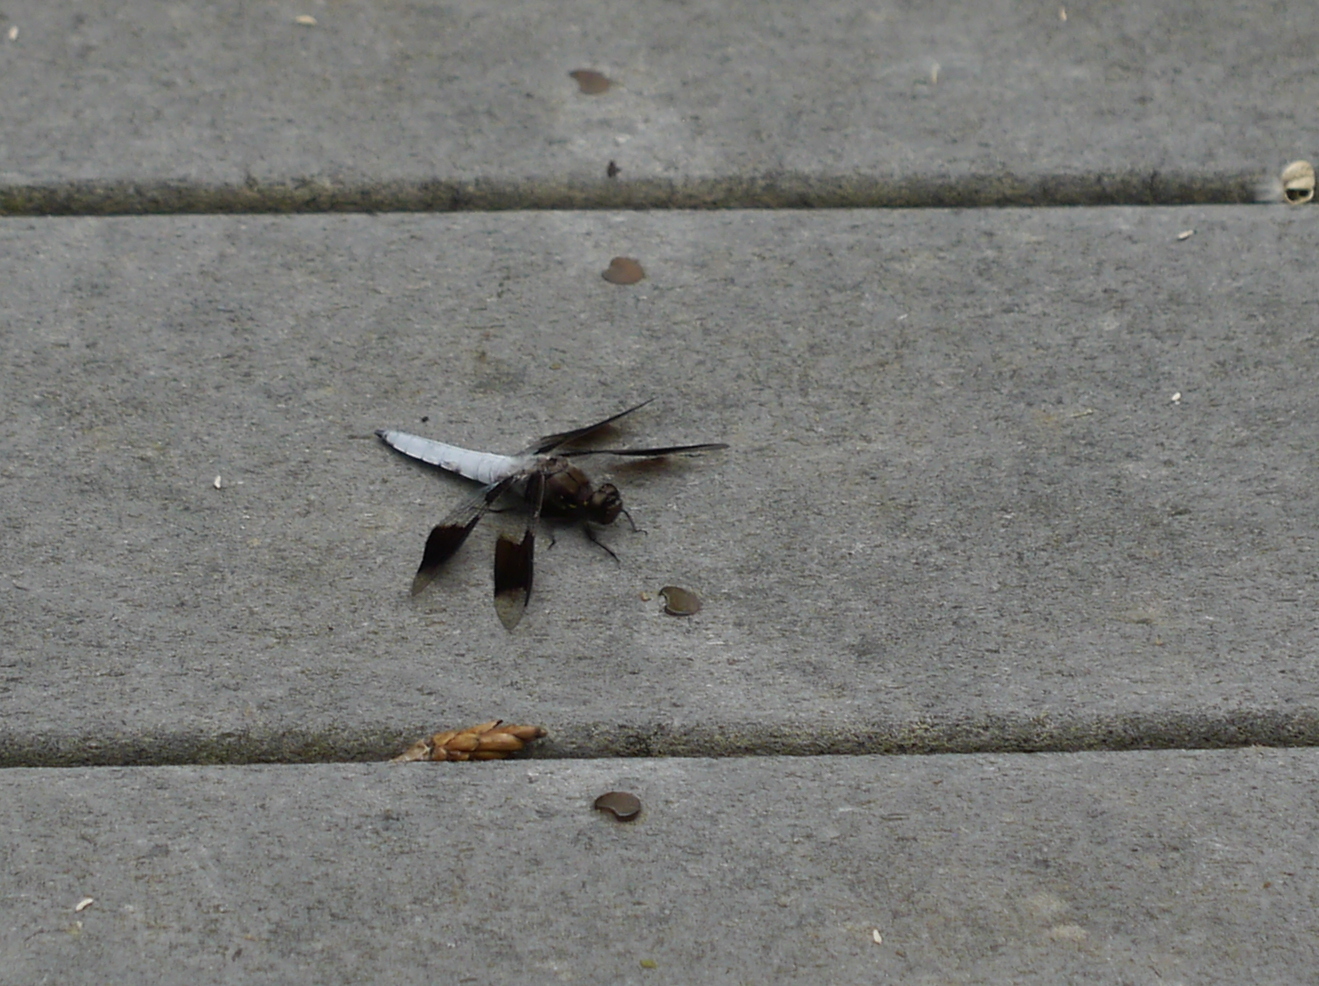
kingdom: Animalia
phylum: Arthropoda
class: Insecta
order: Odonata
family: Libellulidae
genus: Plathemis
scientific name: Plathemis lydia
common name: Common whitetail
